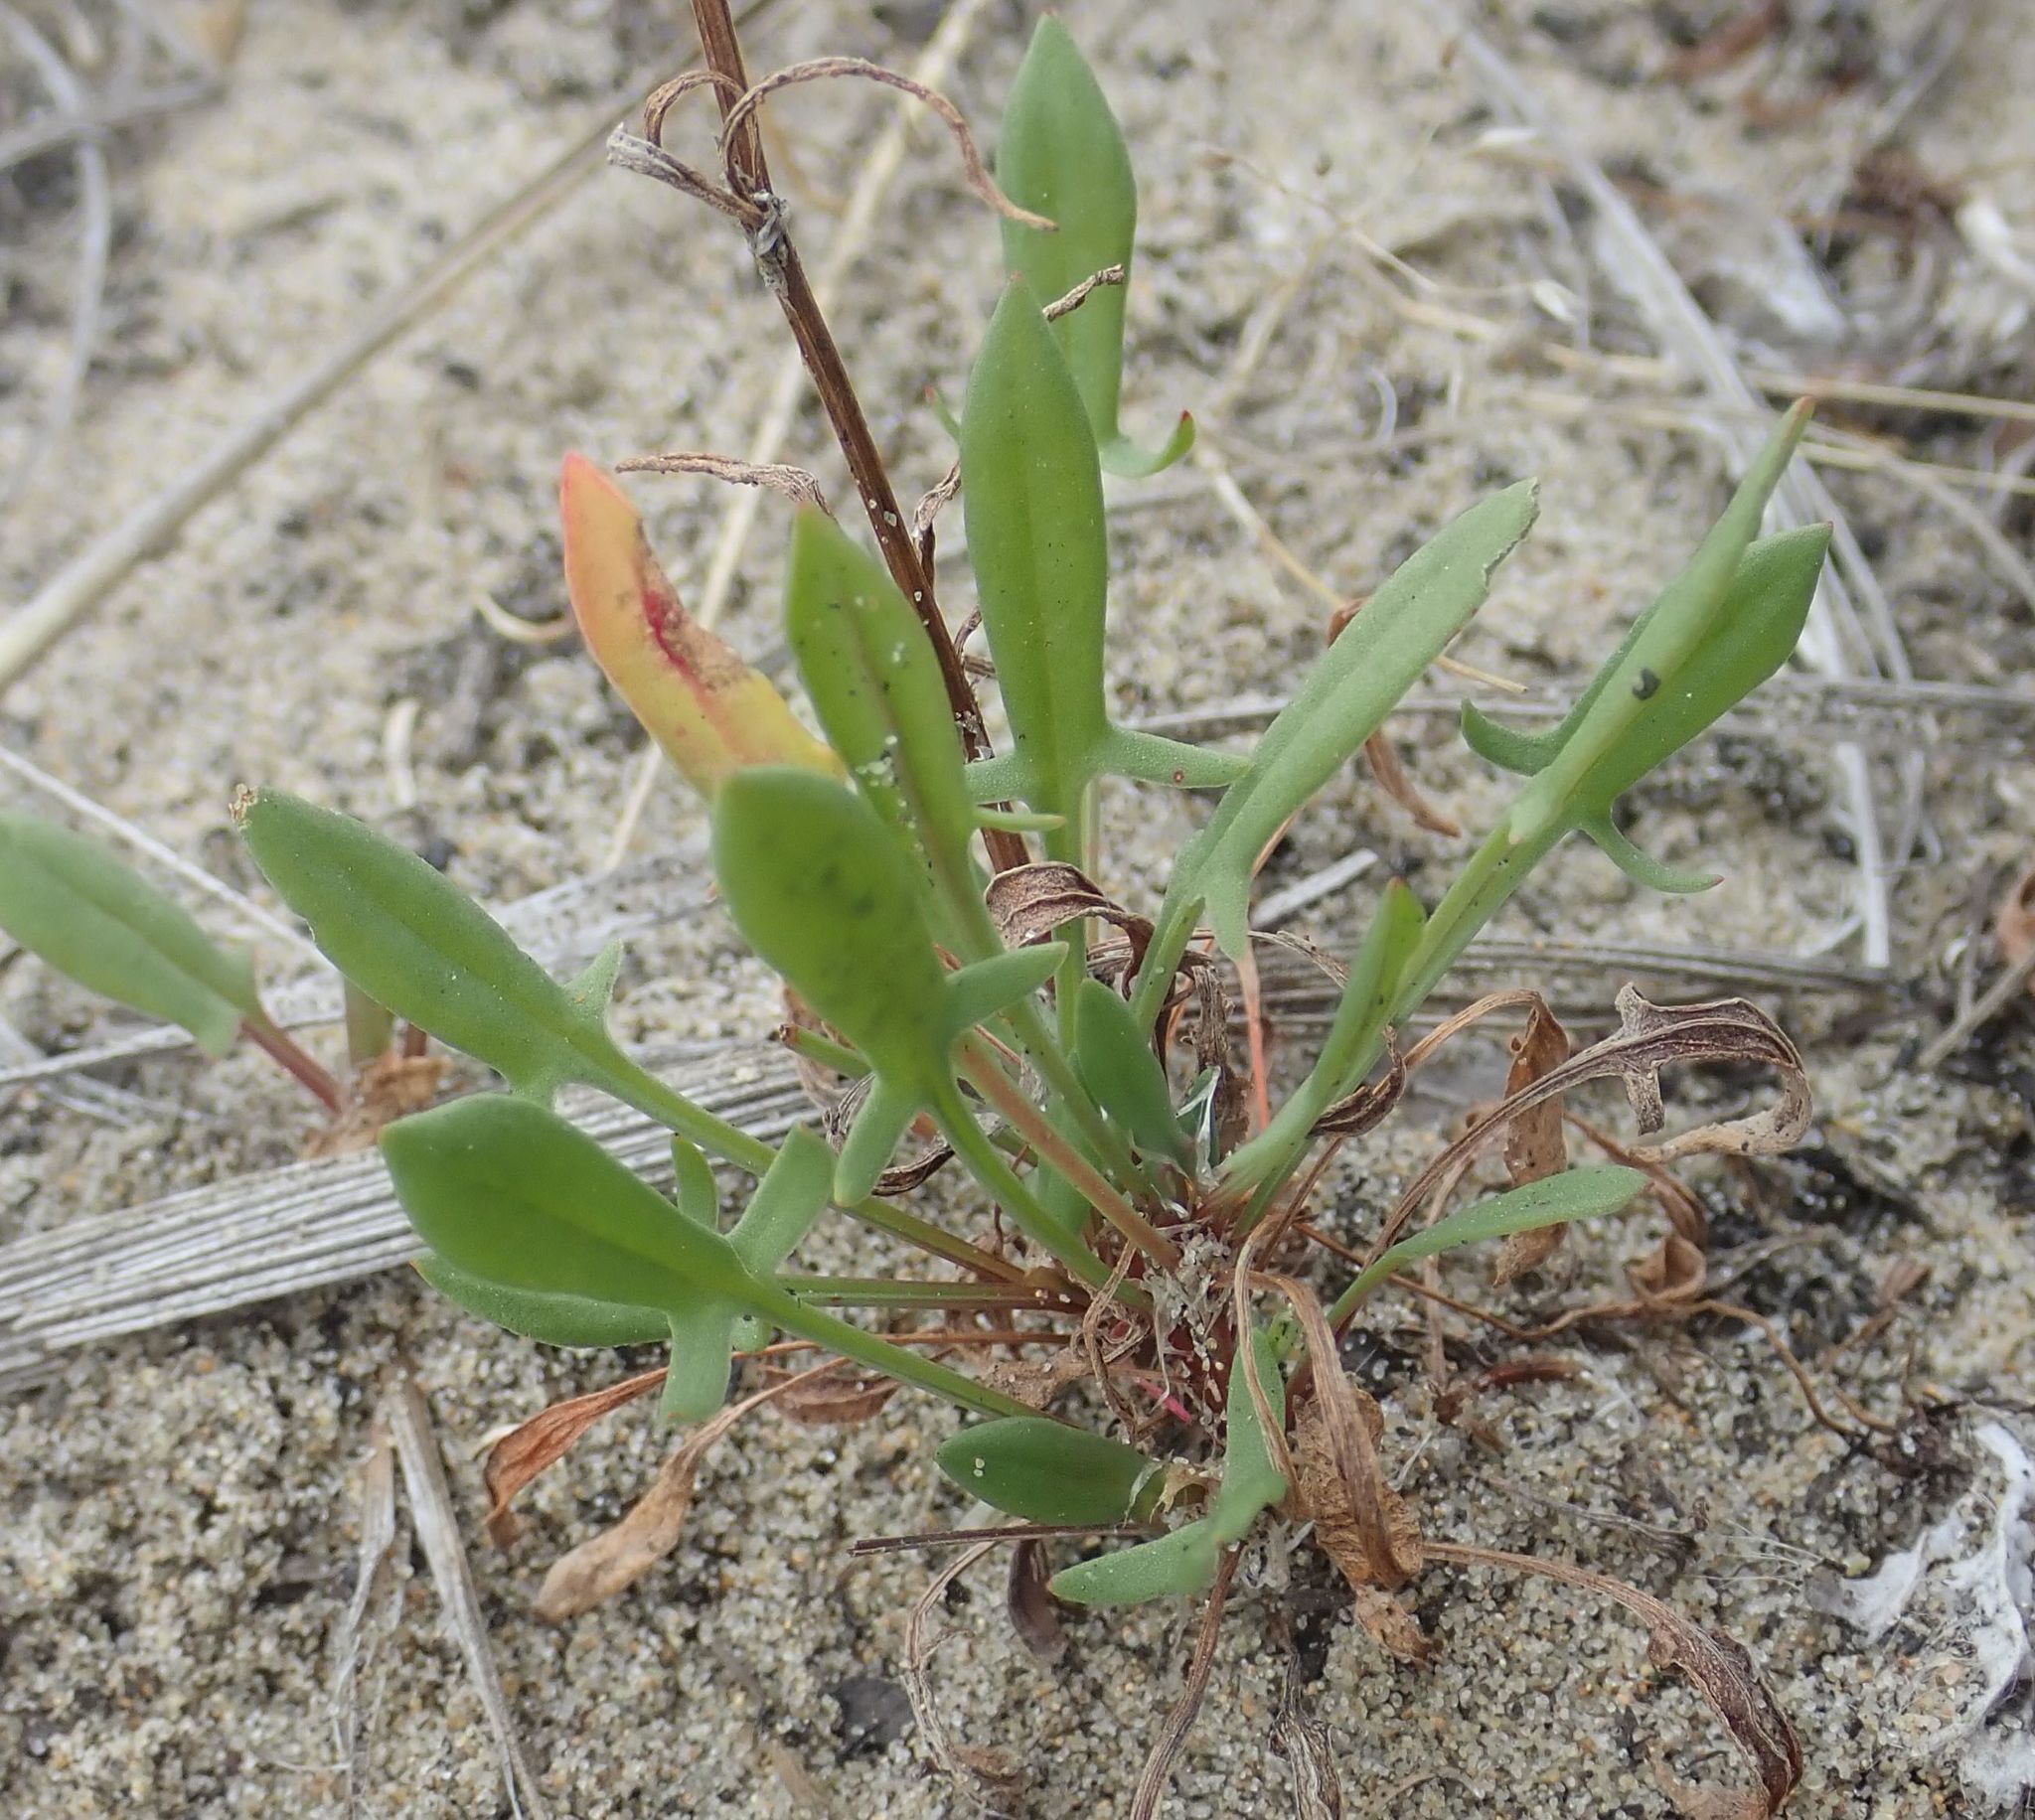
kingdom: Plantae
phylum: Tracheophyta
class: Magnoliopsida
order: Caryophyllales
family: Polygonaceae
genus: Rumex
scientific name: Rumex acetosella
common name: Common sheep sorrel
